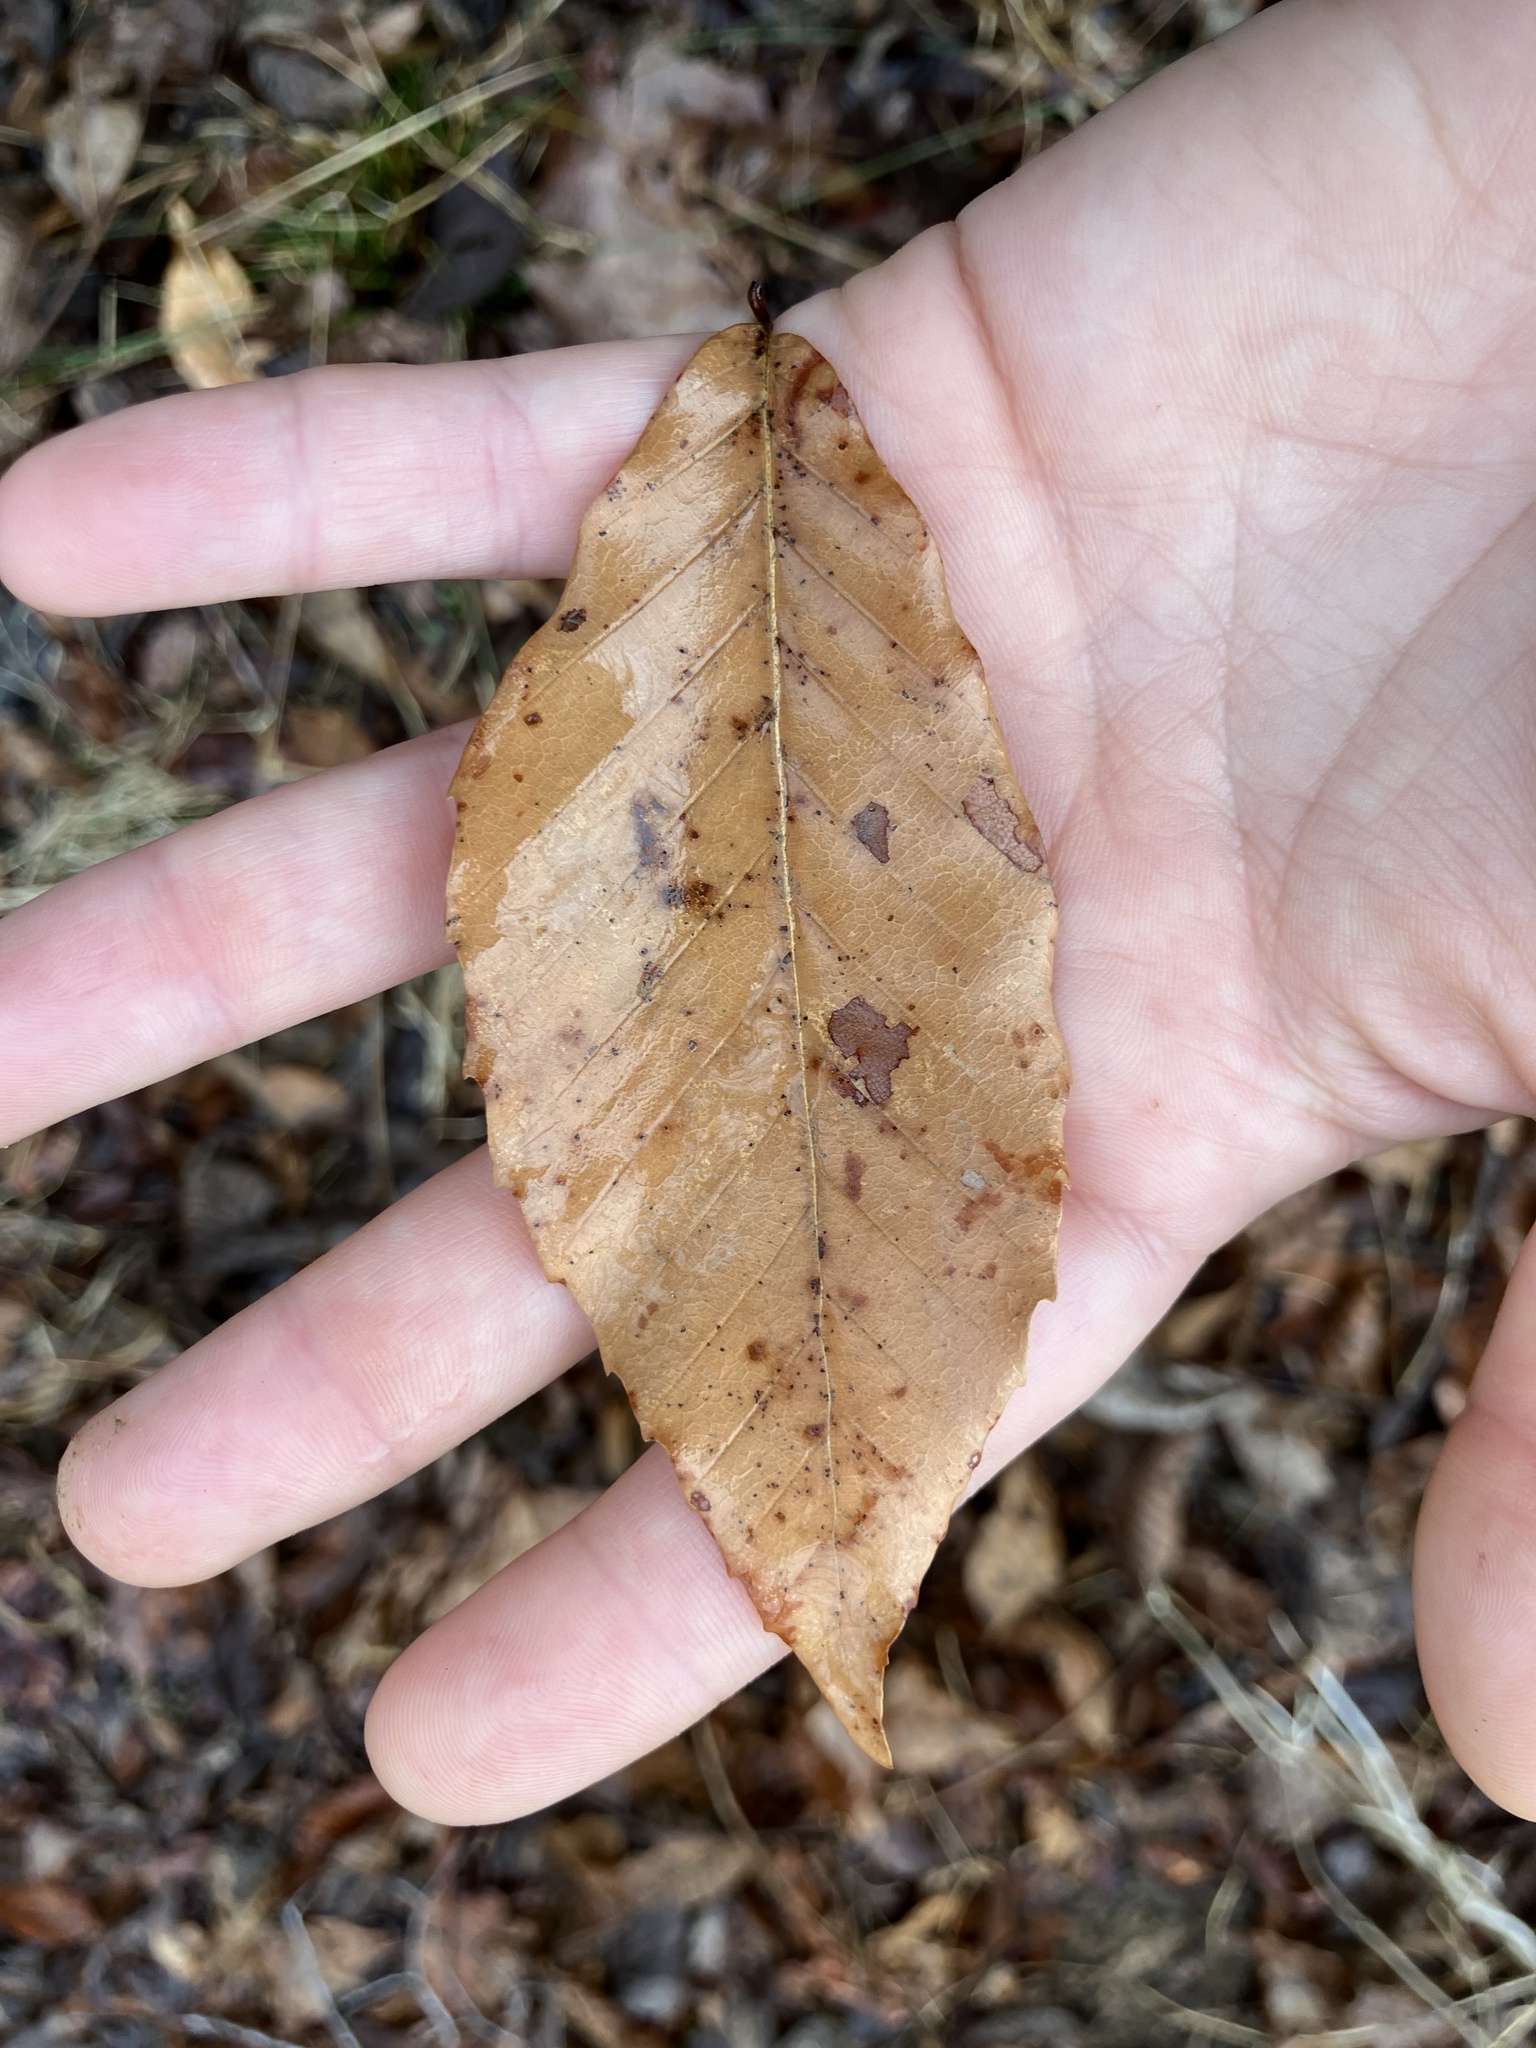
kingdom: Plantae
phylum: Tracheophyta
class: Magnoliopsida
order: Fagales
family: Fagaceae
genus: Fagus
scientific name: Fagus grandifolia
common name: American beech
